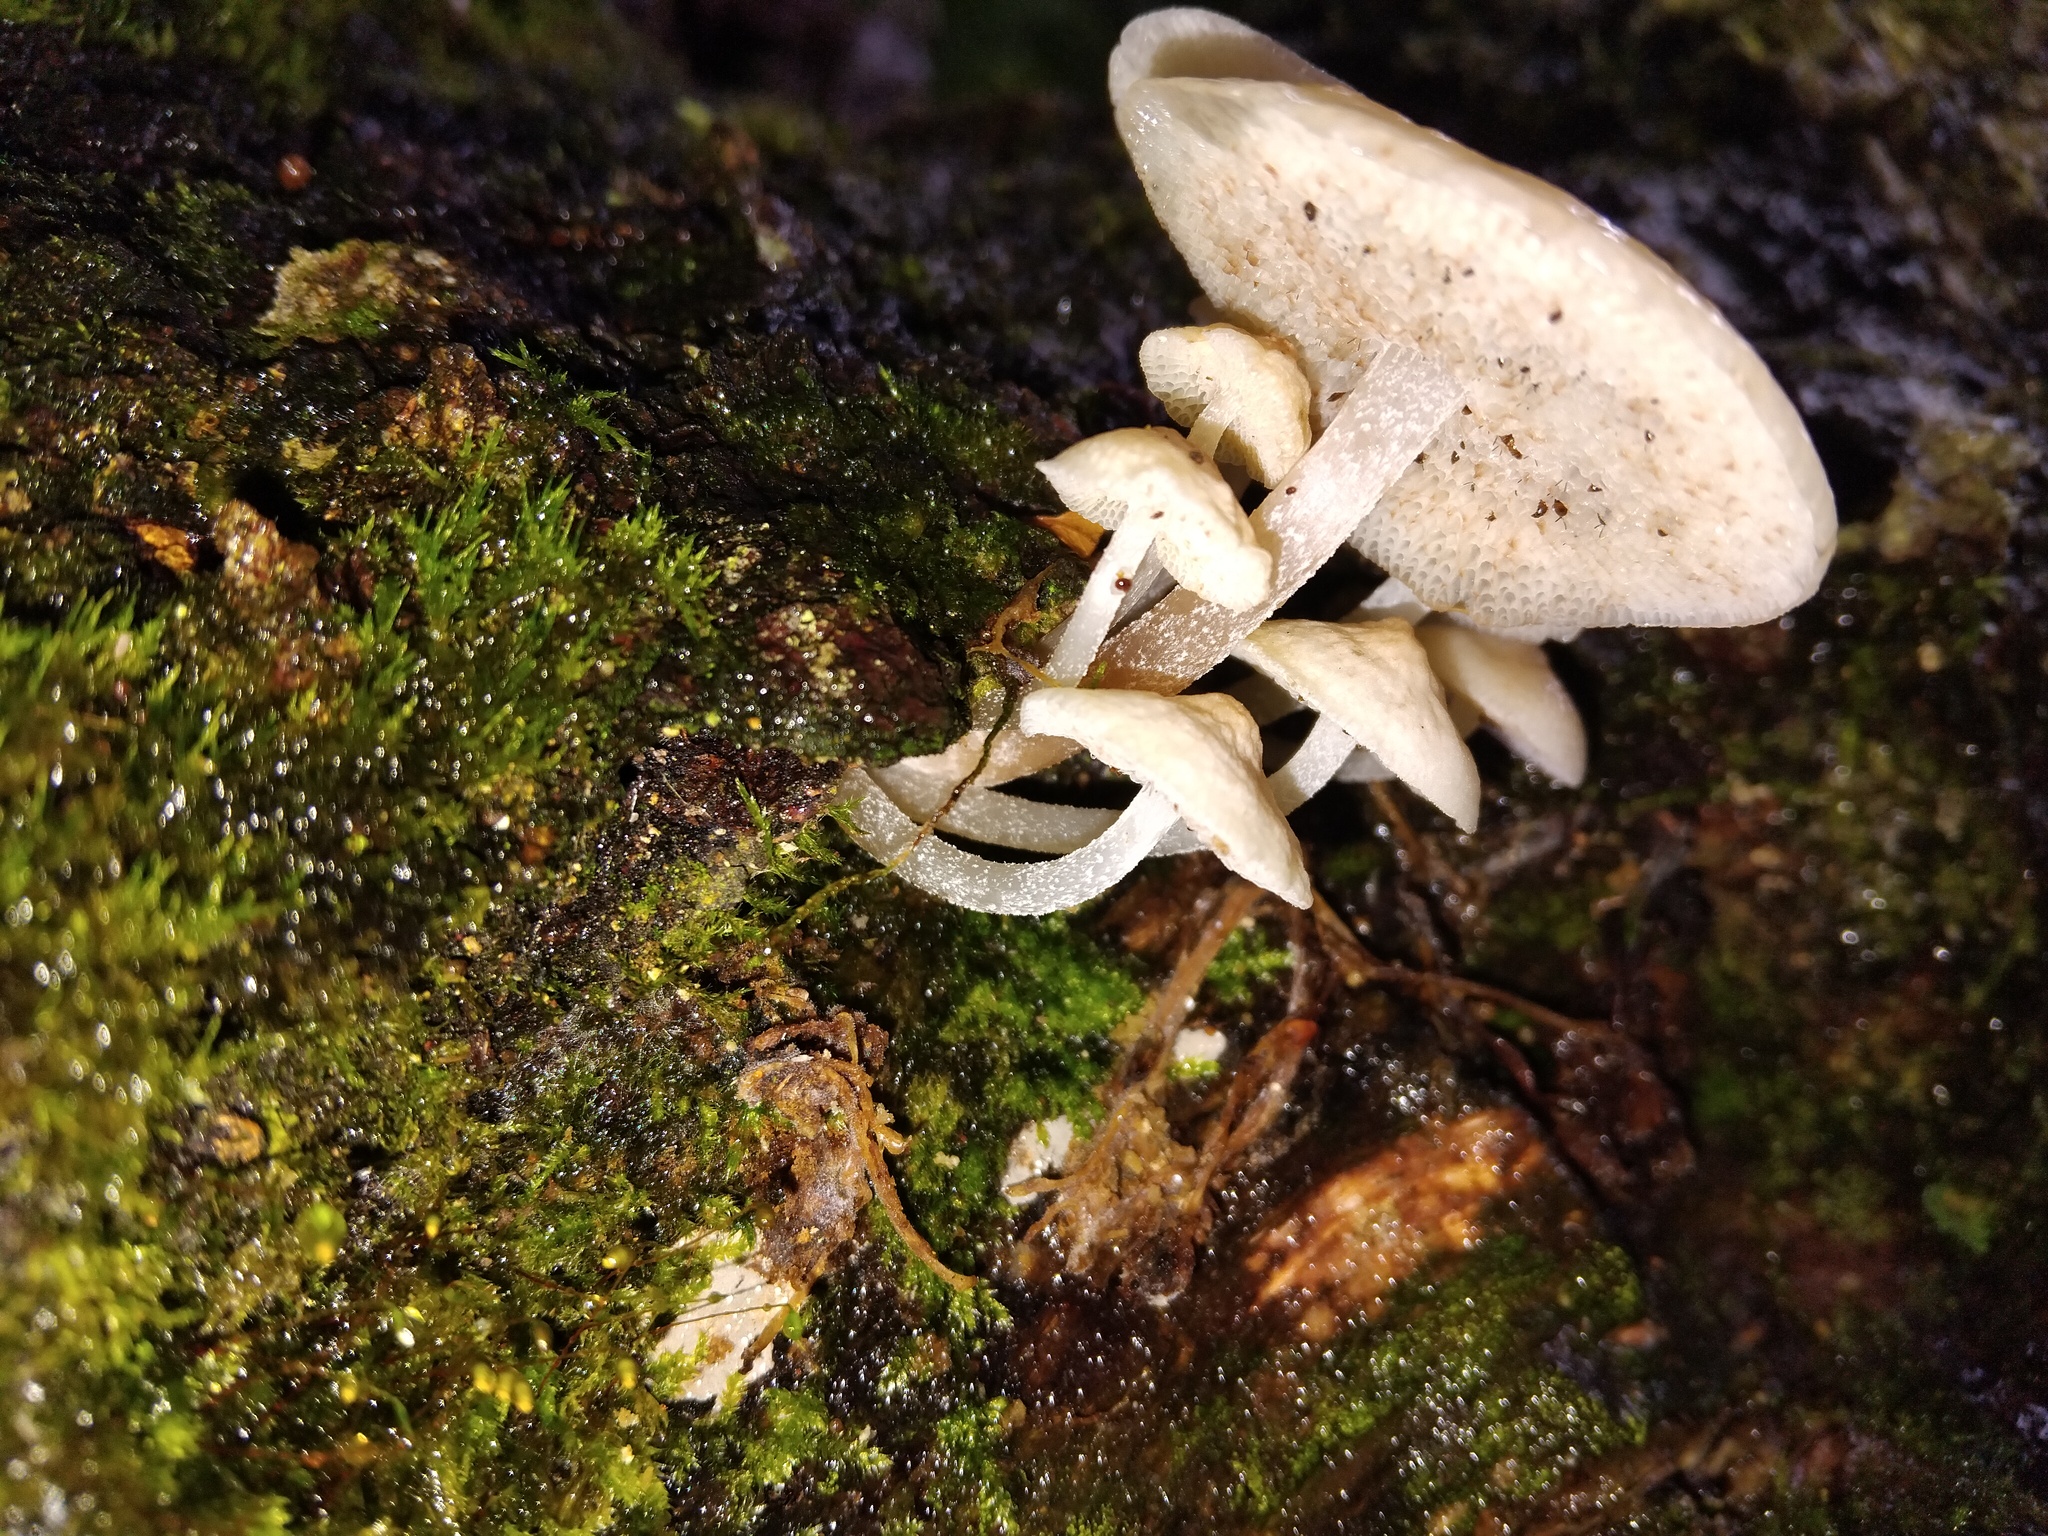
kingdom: Fungi
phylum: Basidiomycota
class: Agaricomycetes
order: Agaricales
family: Mycenaceae
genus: Filoboletus
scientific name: Filoboletus manipularis
